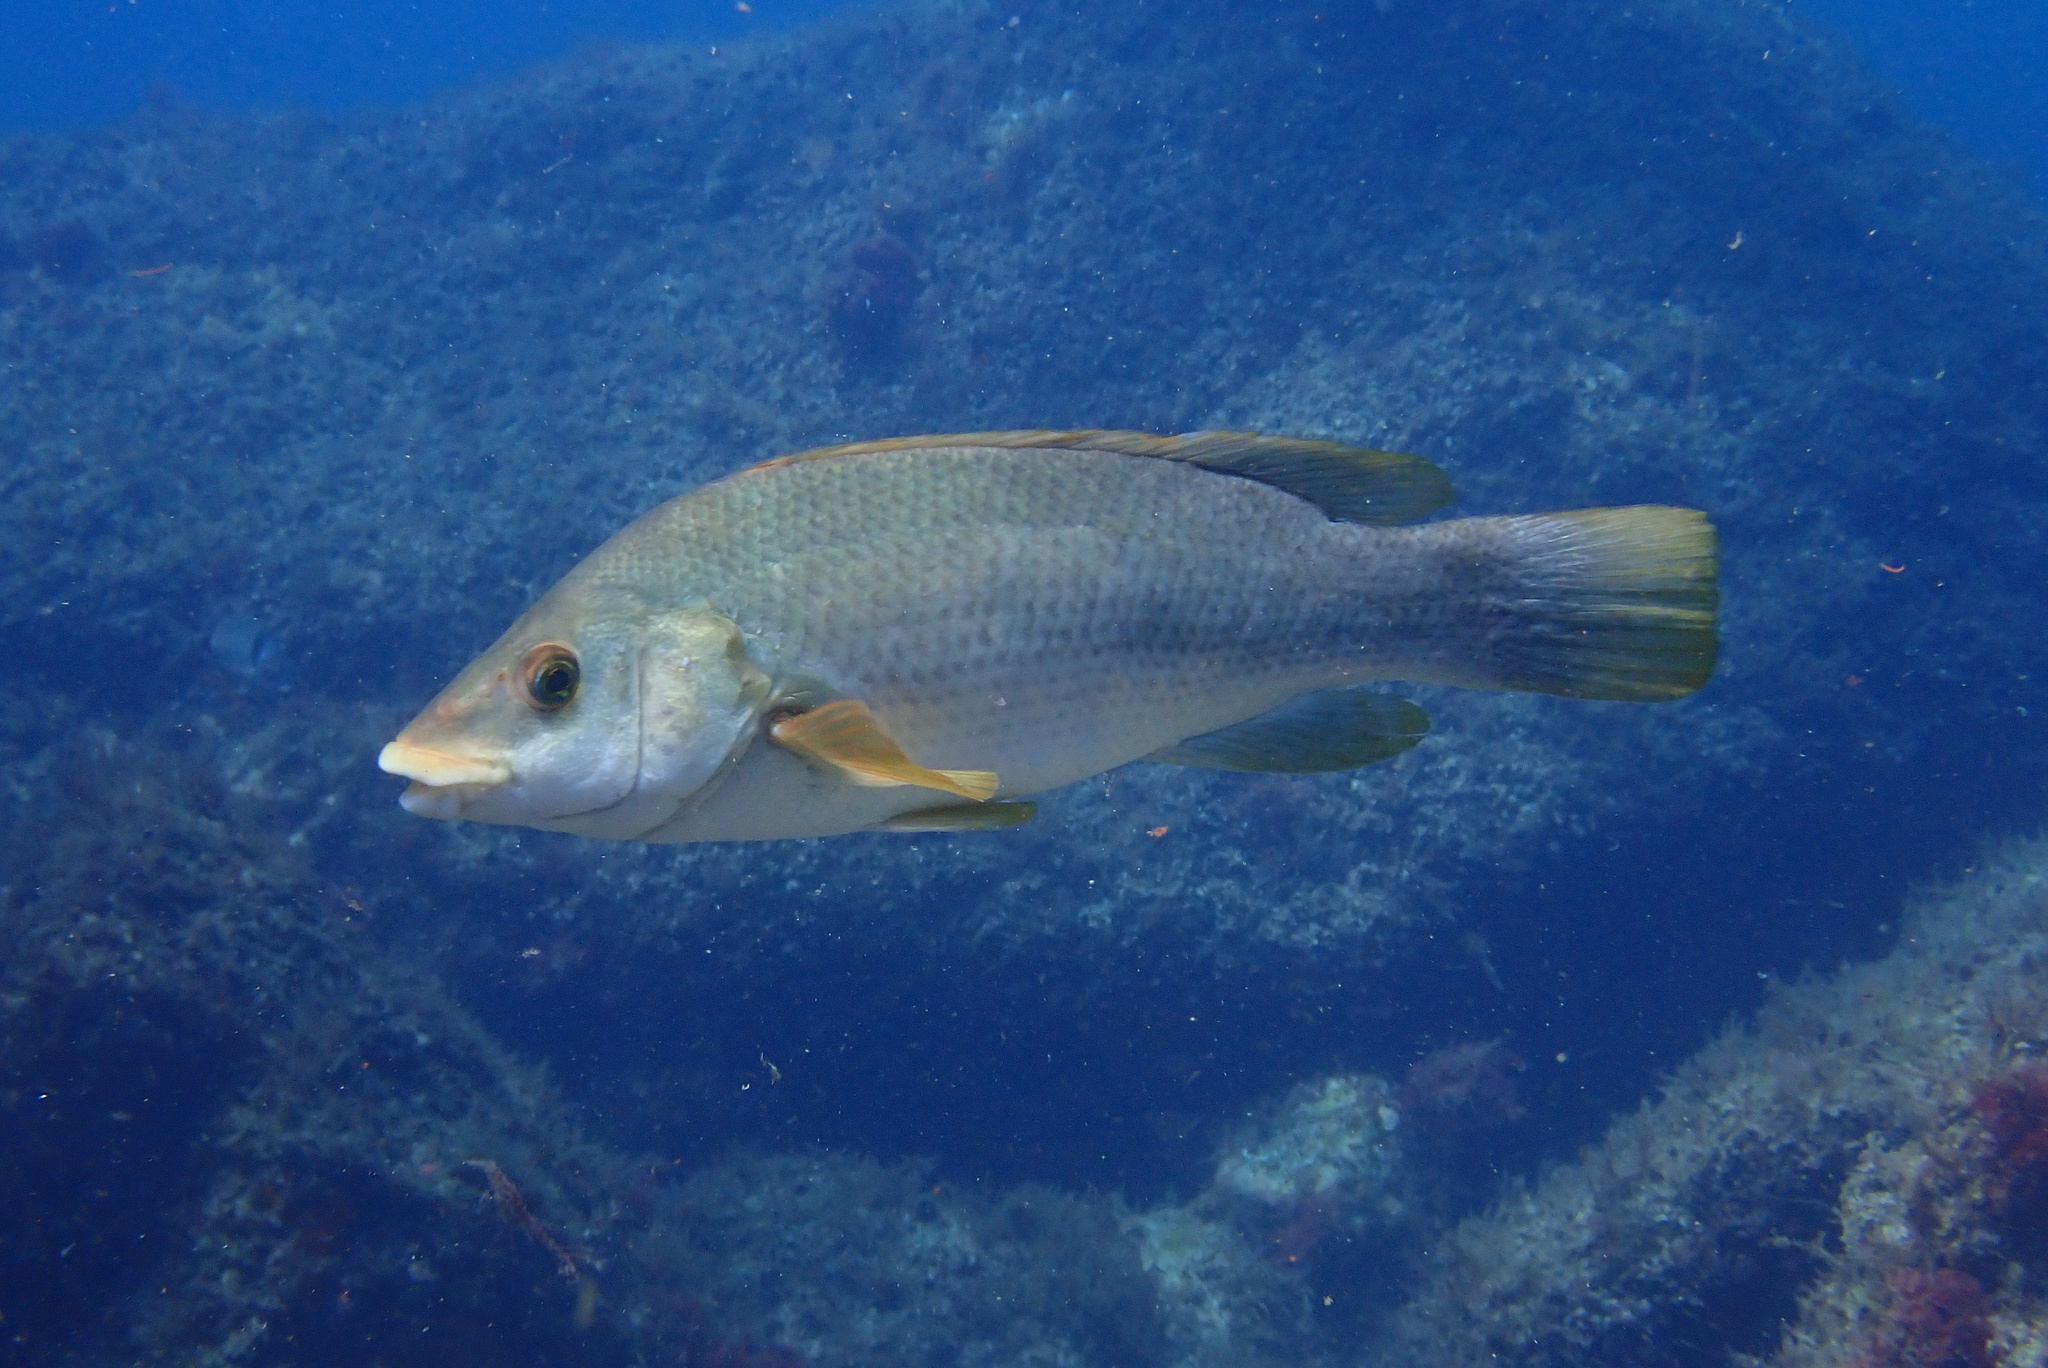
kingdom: Animalia
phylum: Chordata
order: Perciformes
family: Labridae
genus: Labrus
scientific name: Labrus bergylta
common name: Ballan wrasse
